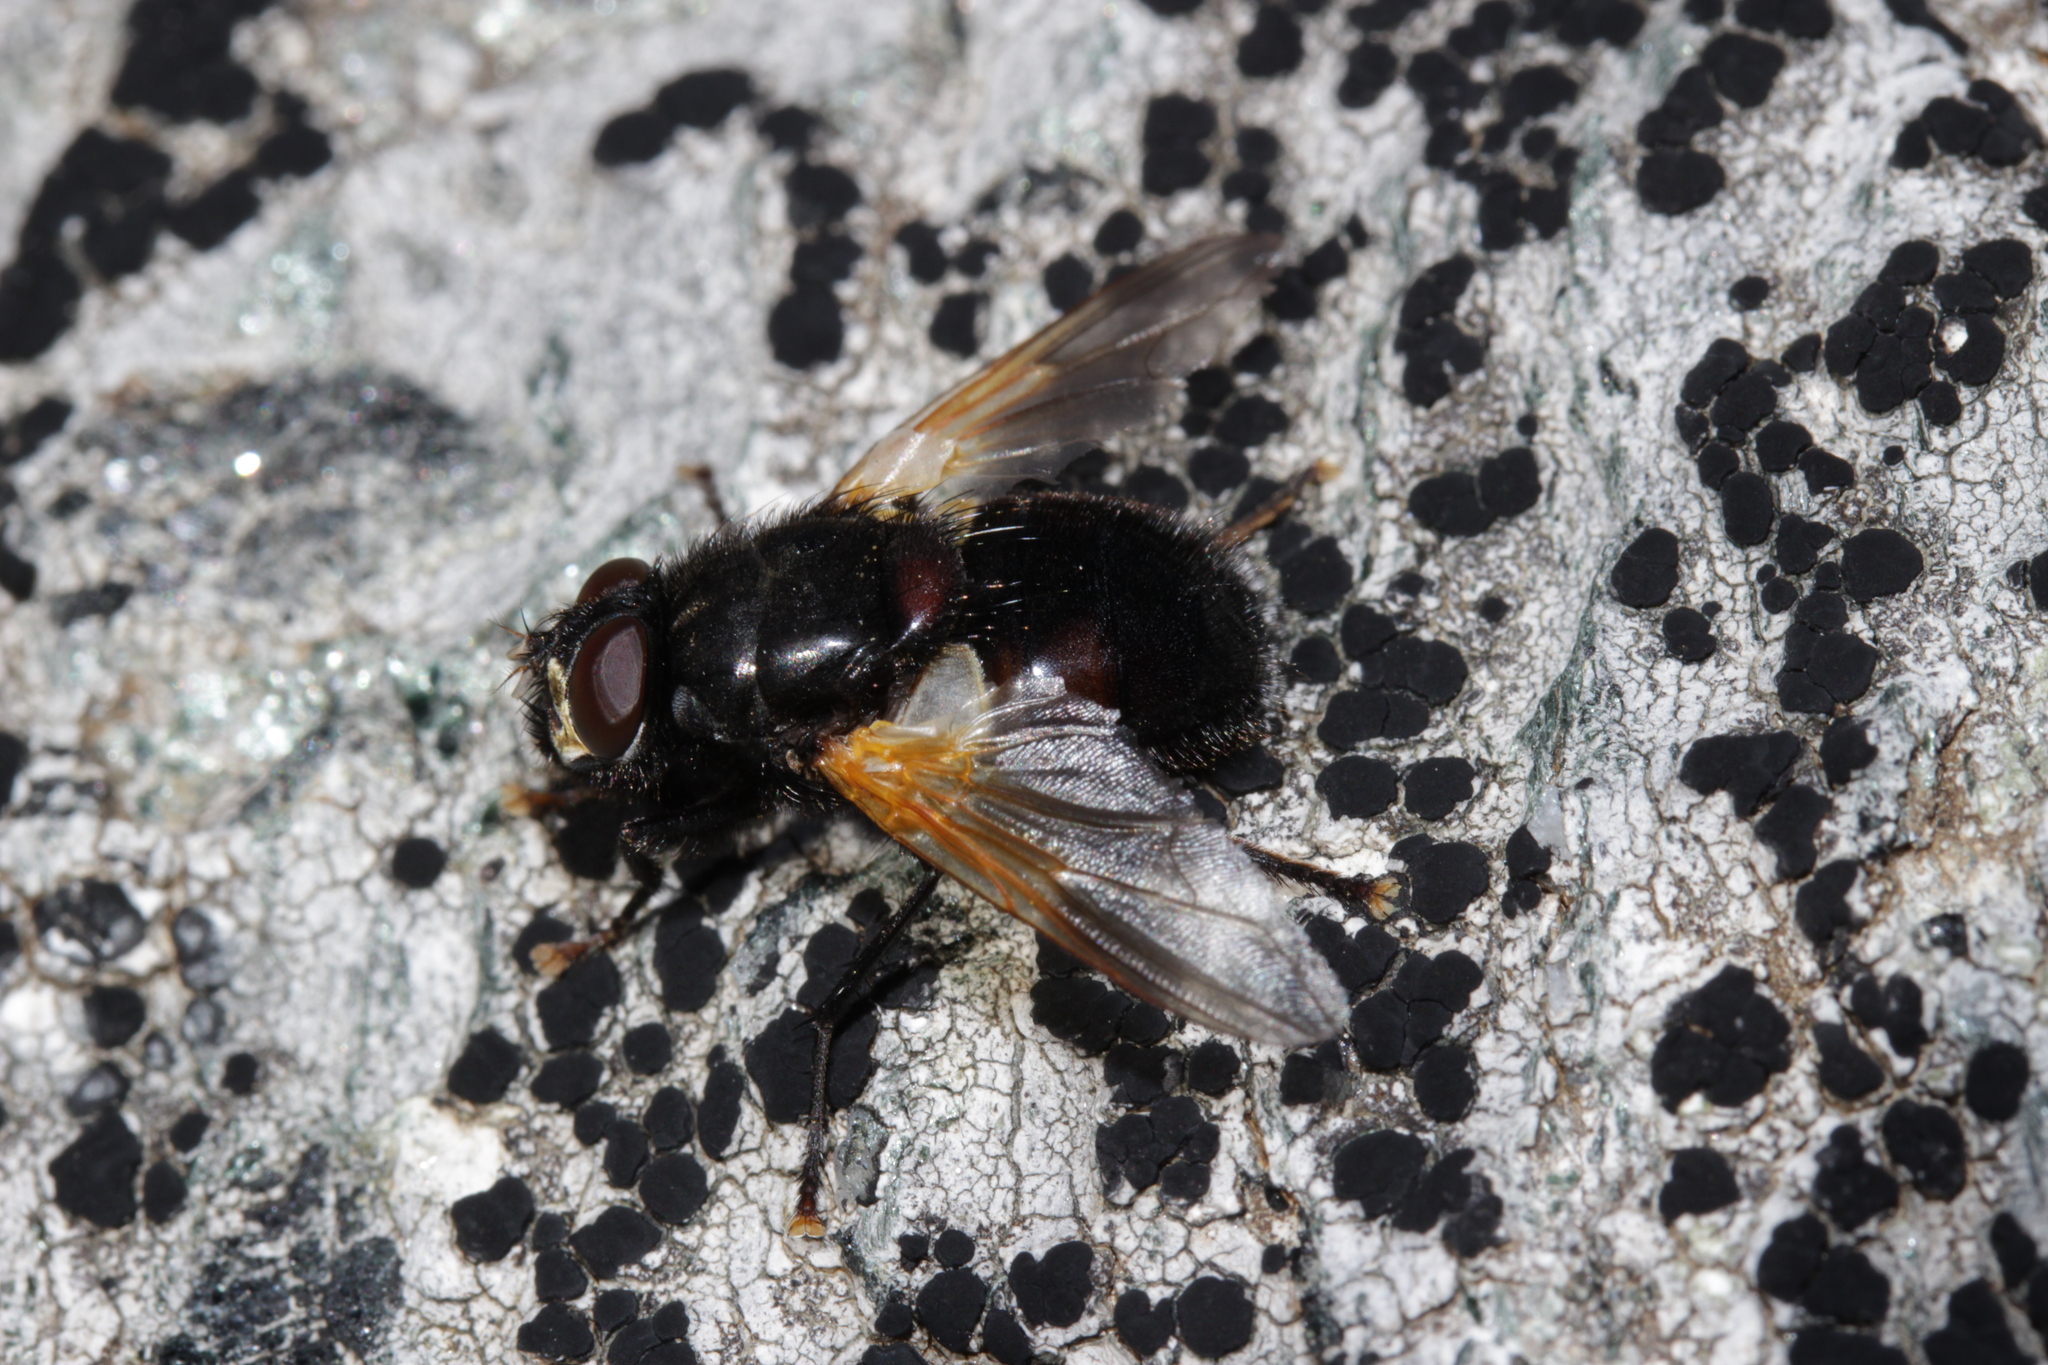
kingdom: Animalia
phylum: Arthropoda
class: Insecta
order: Diptera
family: Muscidae
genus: Mesembrina
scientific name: Mesembrina meridiana
